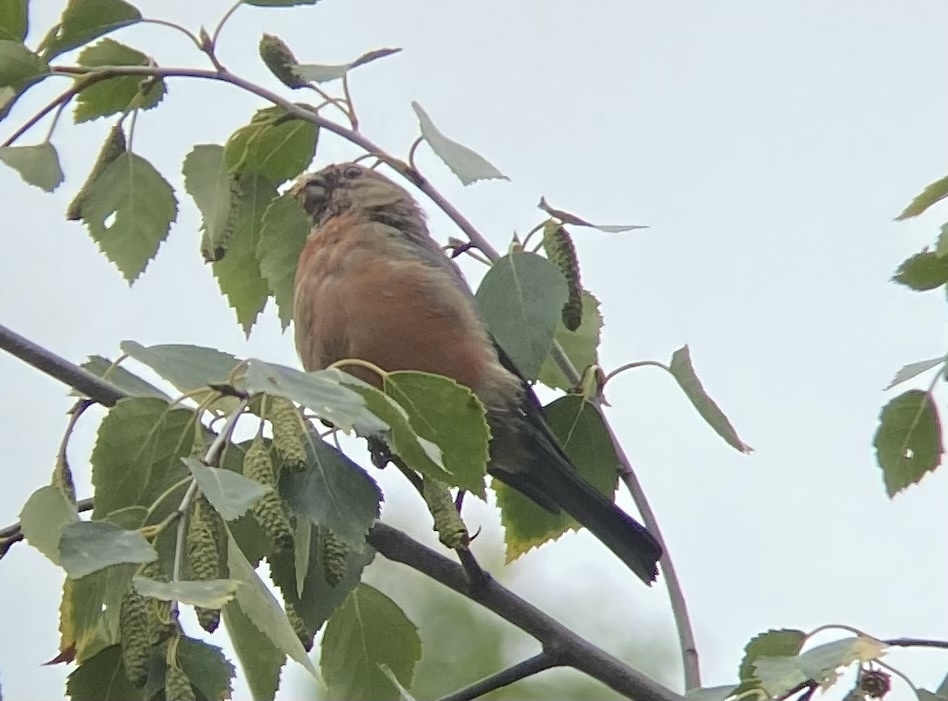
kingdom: Animalia
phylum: Chordata
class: Aves
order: Passeriformes
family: Fringillidae
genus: Pyrrhula
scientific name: Pyrrhula pyrrhula
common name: Eurasian bullfinch
